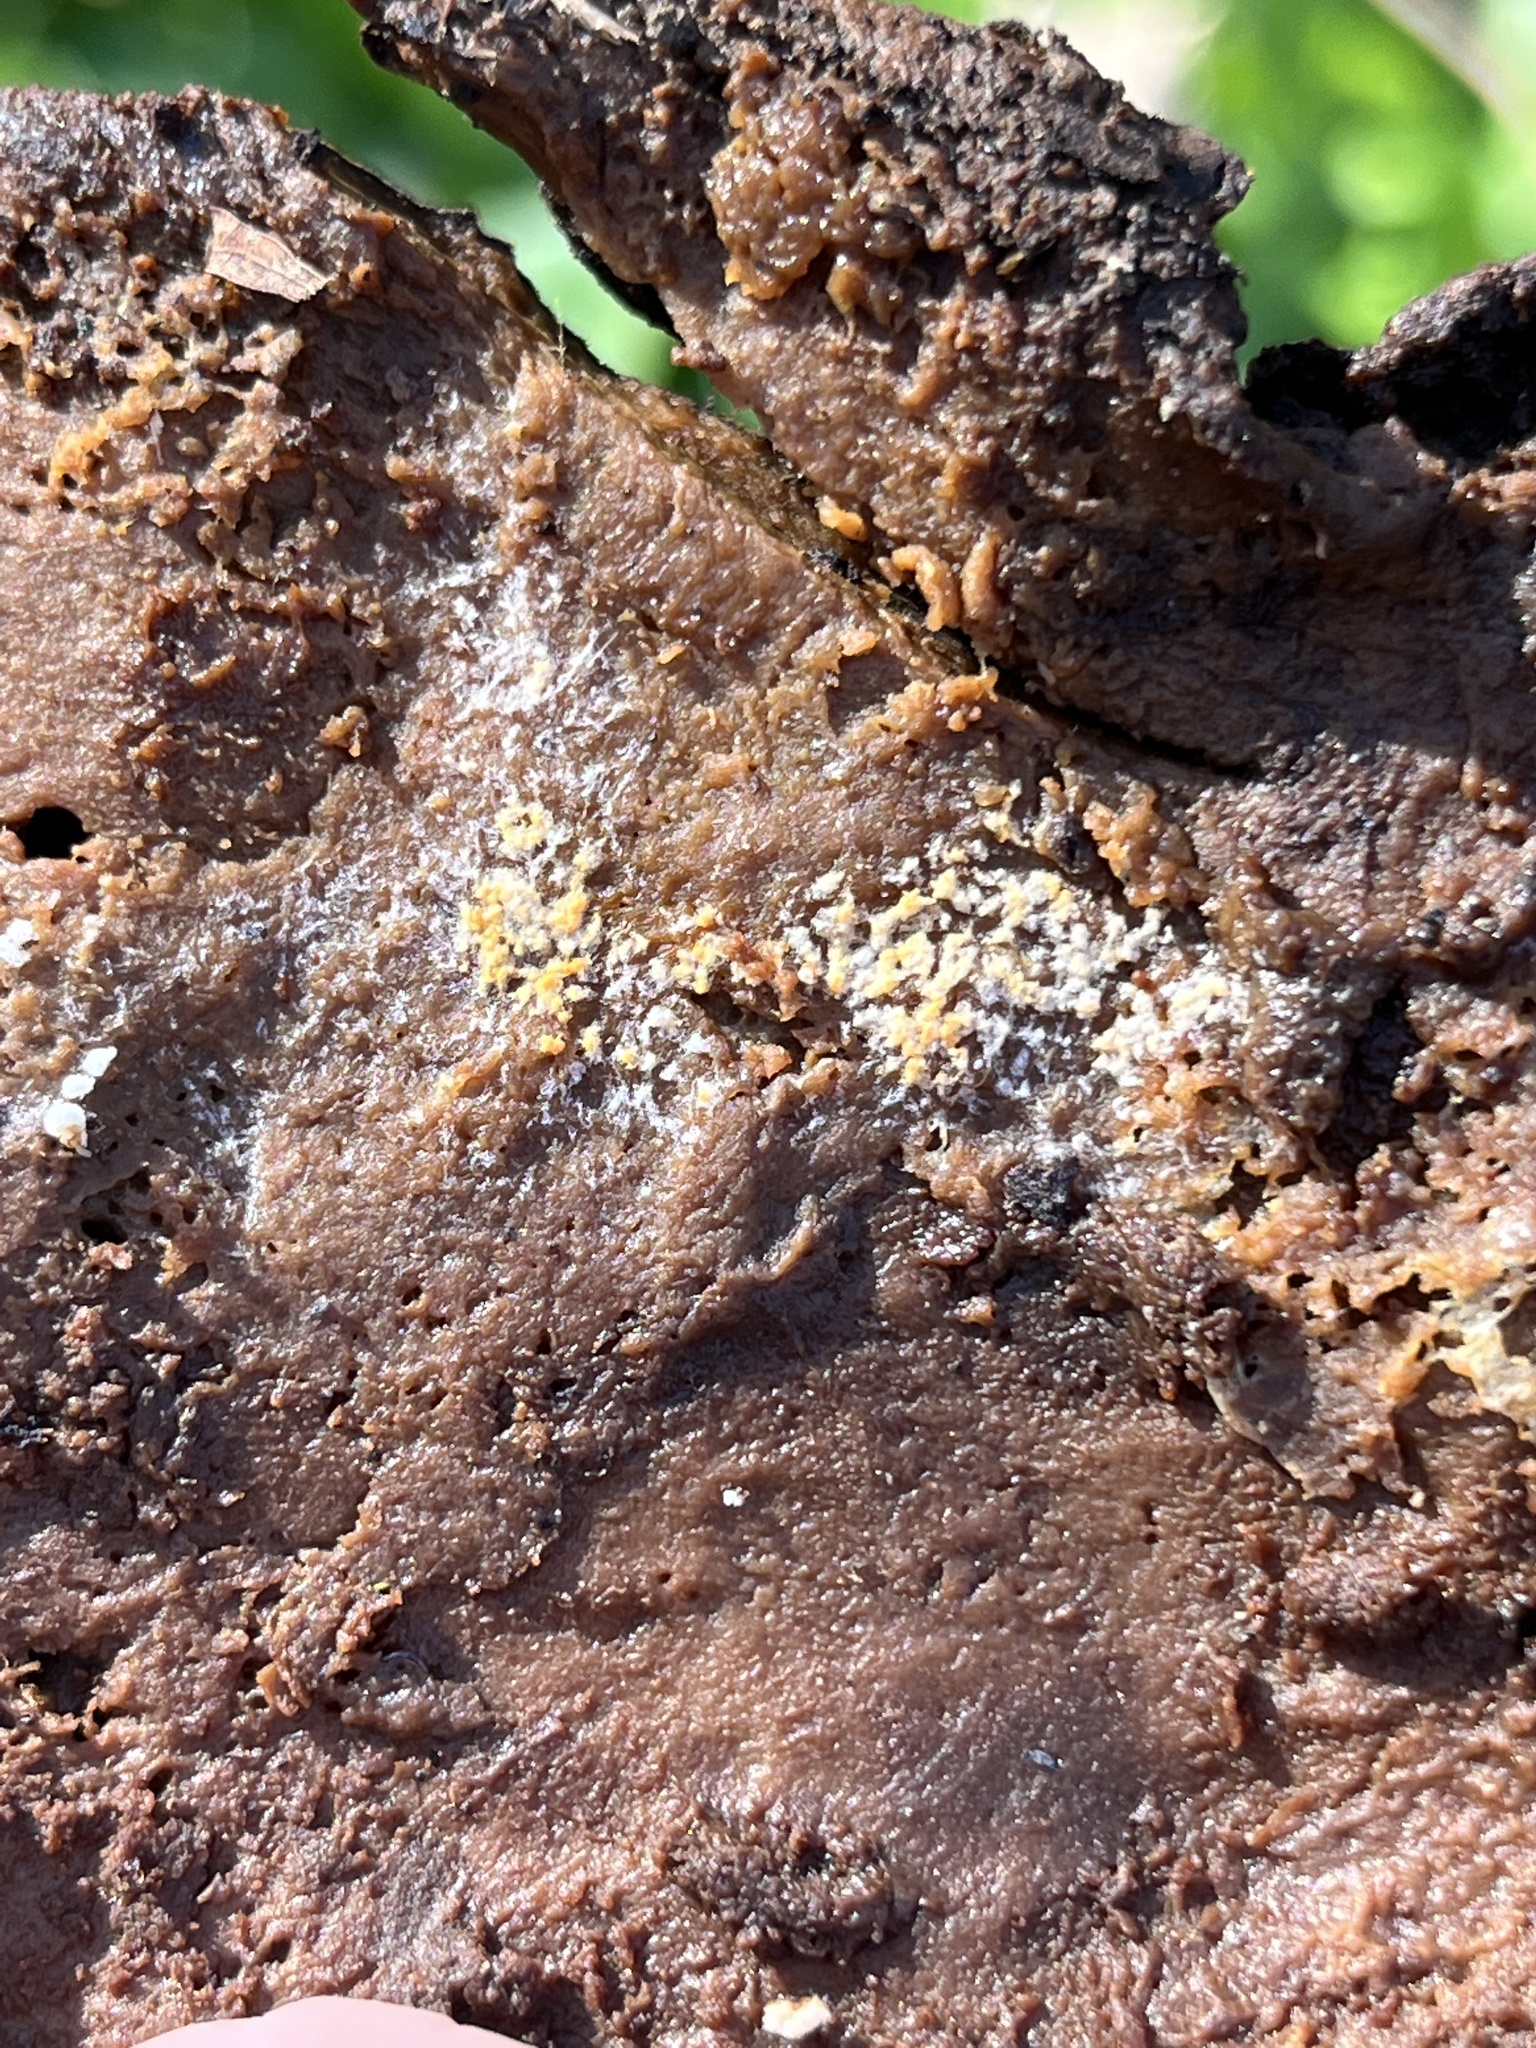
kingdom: Fungi
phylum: Ascomycota
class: Sordariomycetes
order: Hypocreales
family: Hypocreaceae
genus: Hypomyces
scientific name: Hypomyces aurantius
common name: Orange polypore mould
